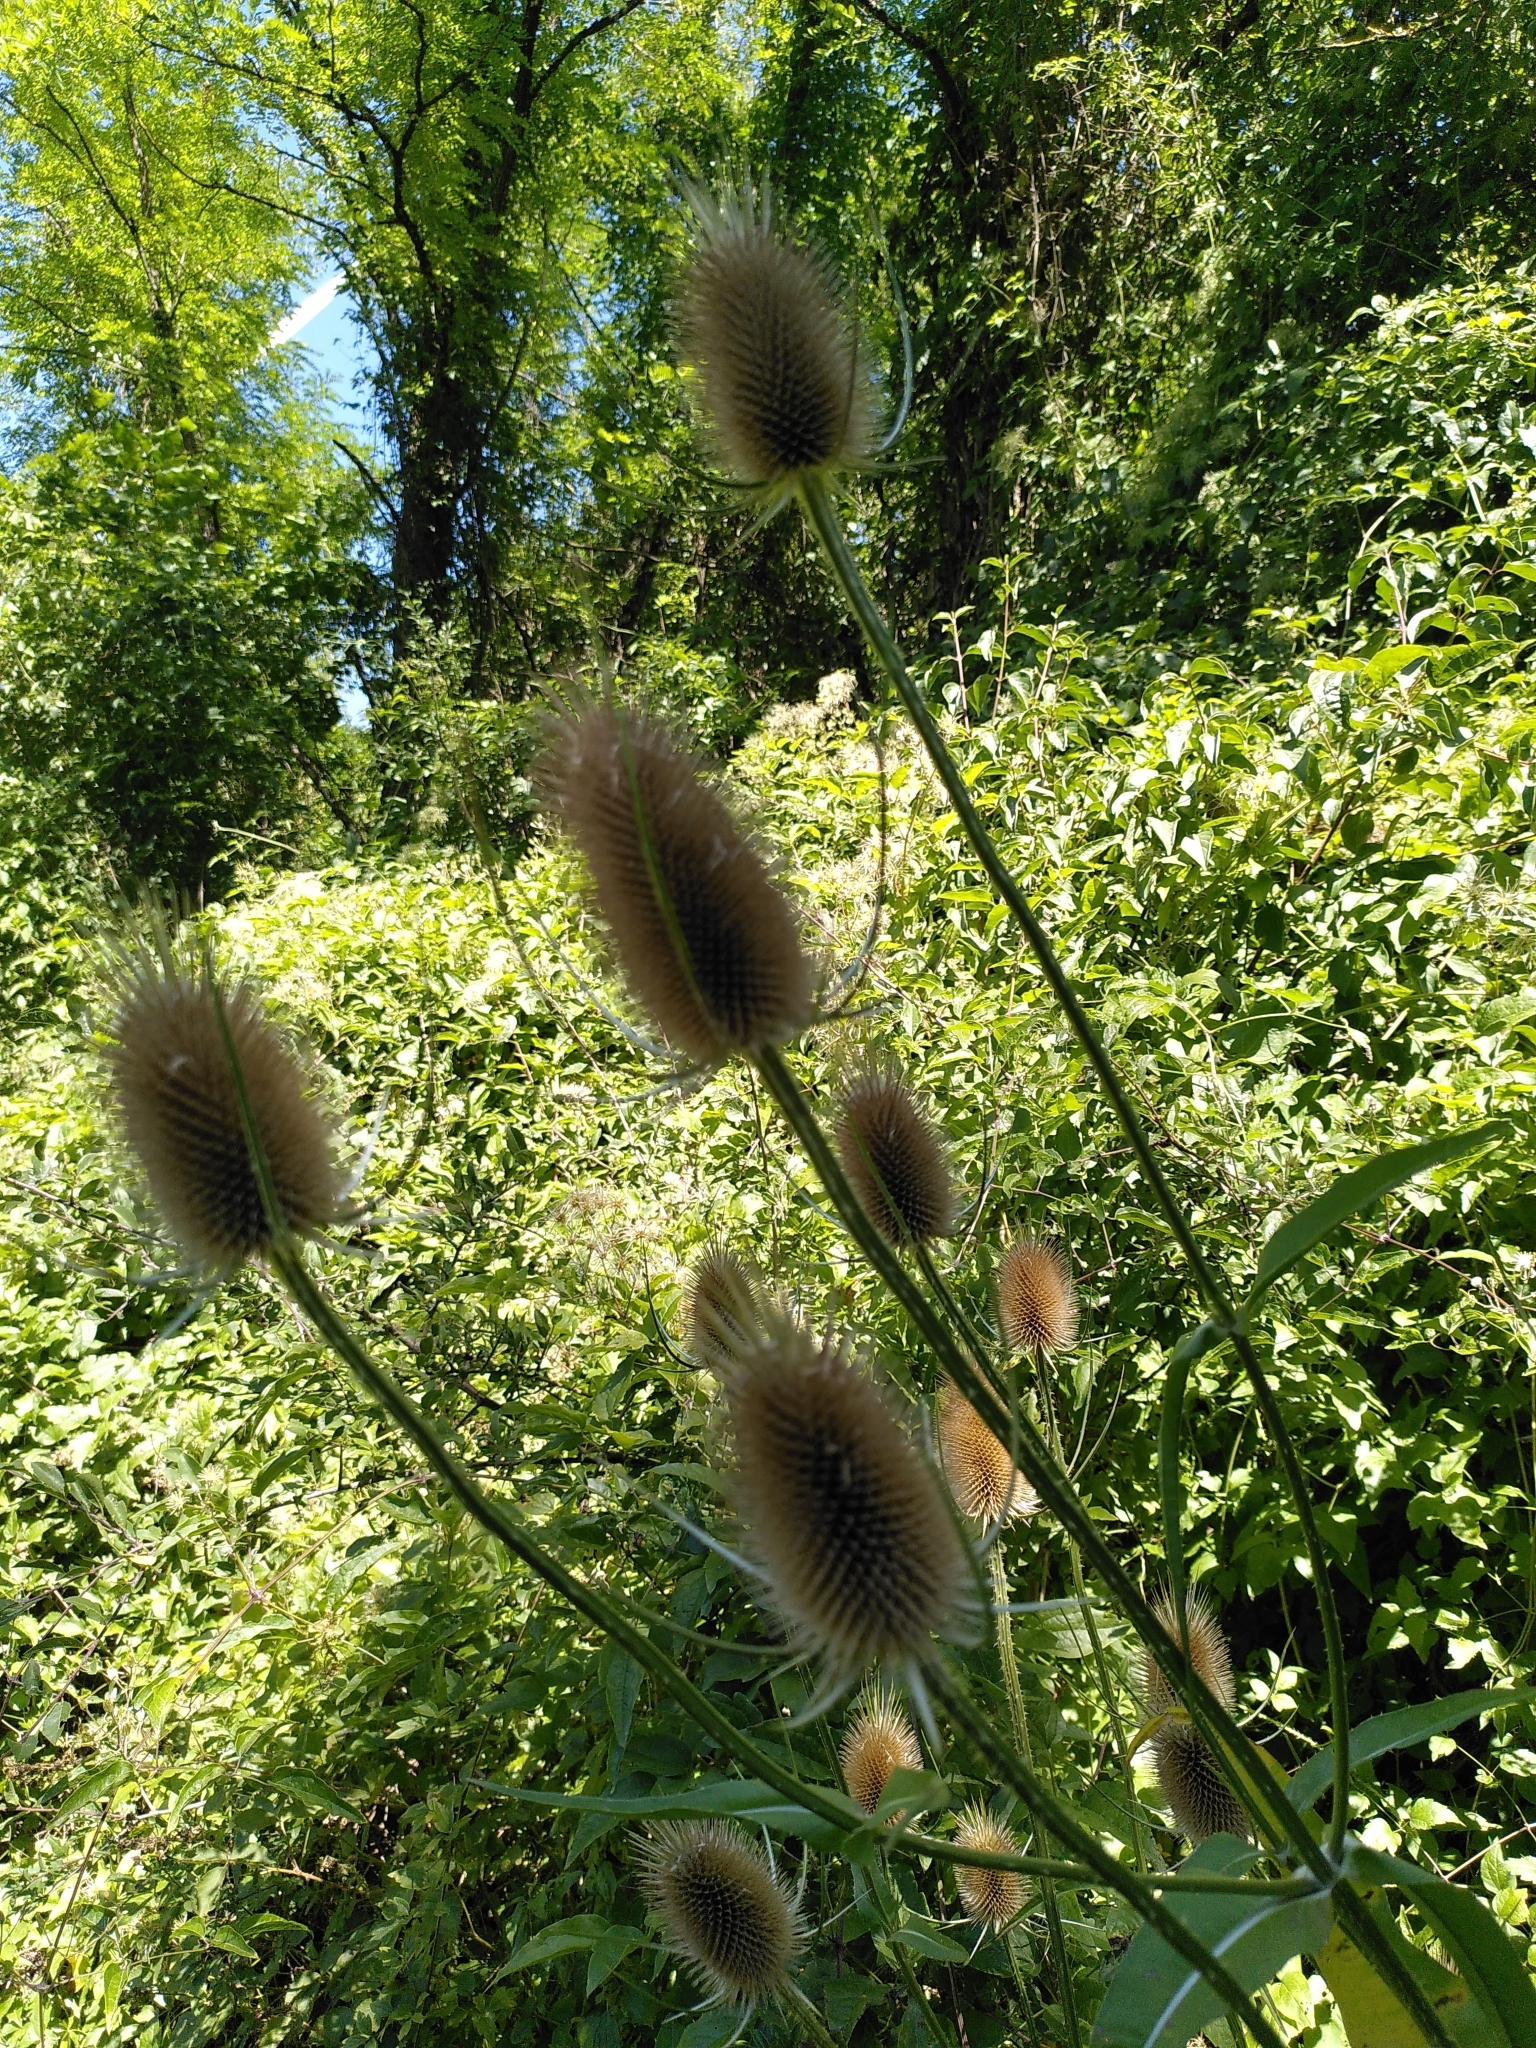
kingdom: Plantae
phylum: Tracheophyta
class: Magnoliopsida
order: Dipsacales
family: Caprifoliaceae
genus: Dipsacus
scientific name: Dipsacus fullonum
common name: Teasel
